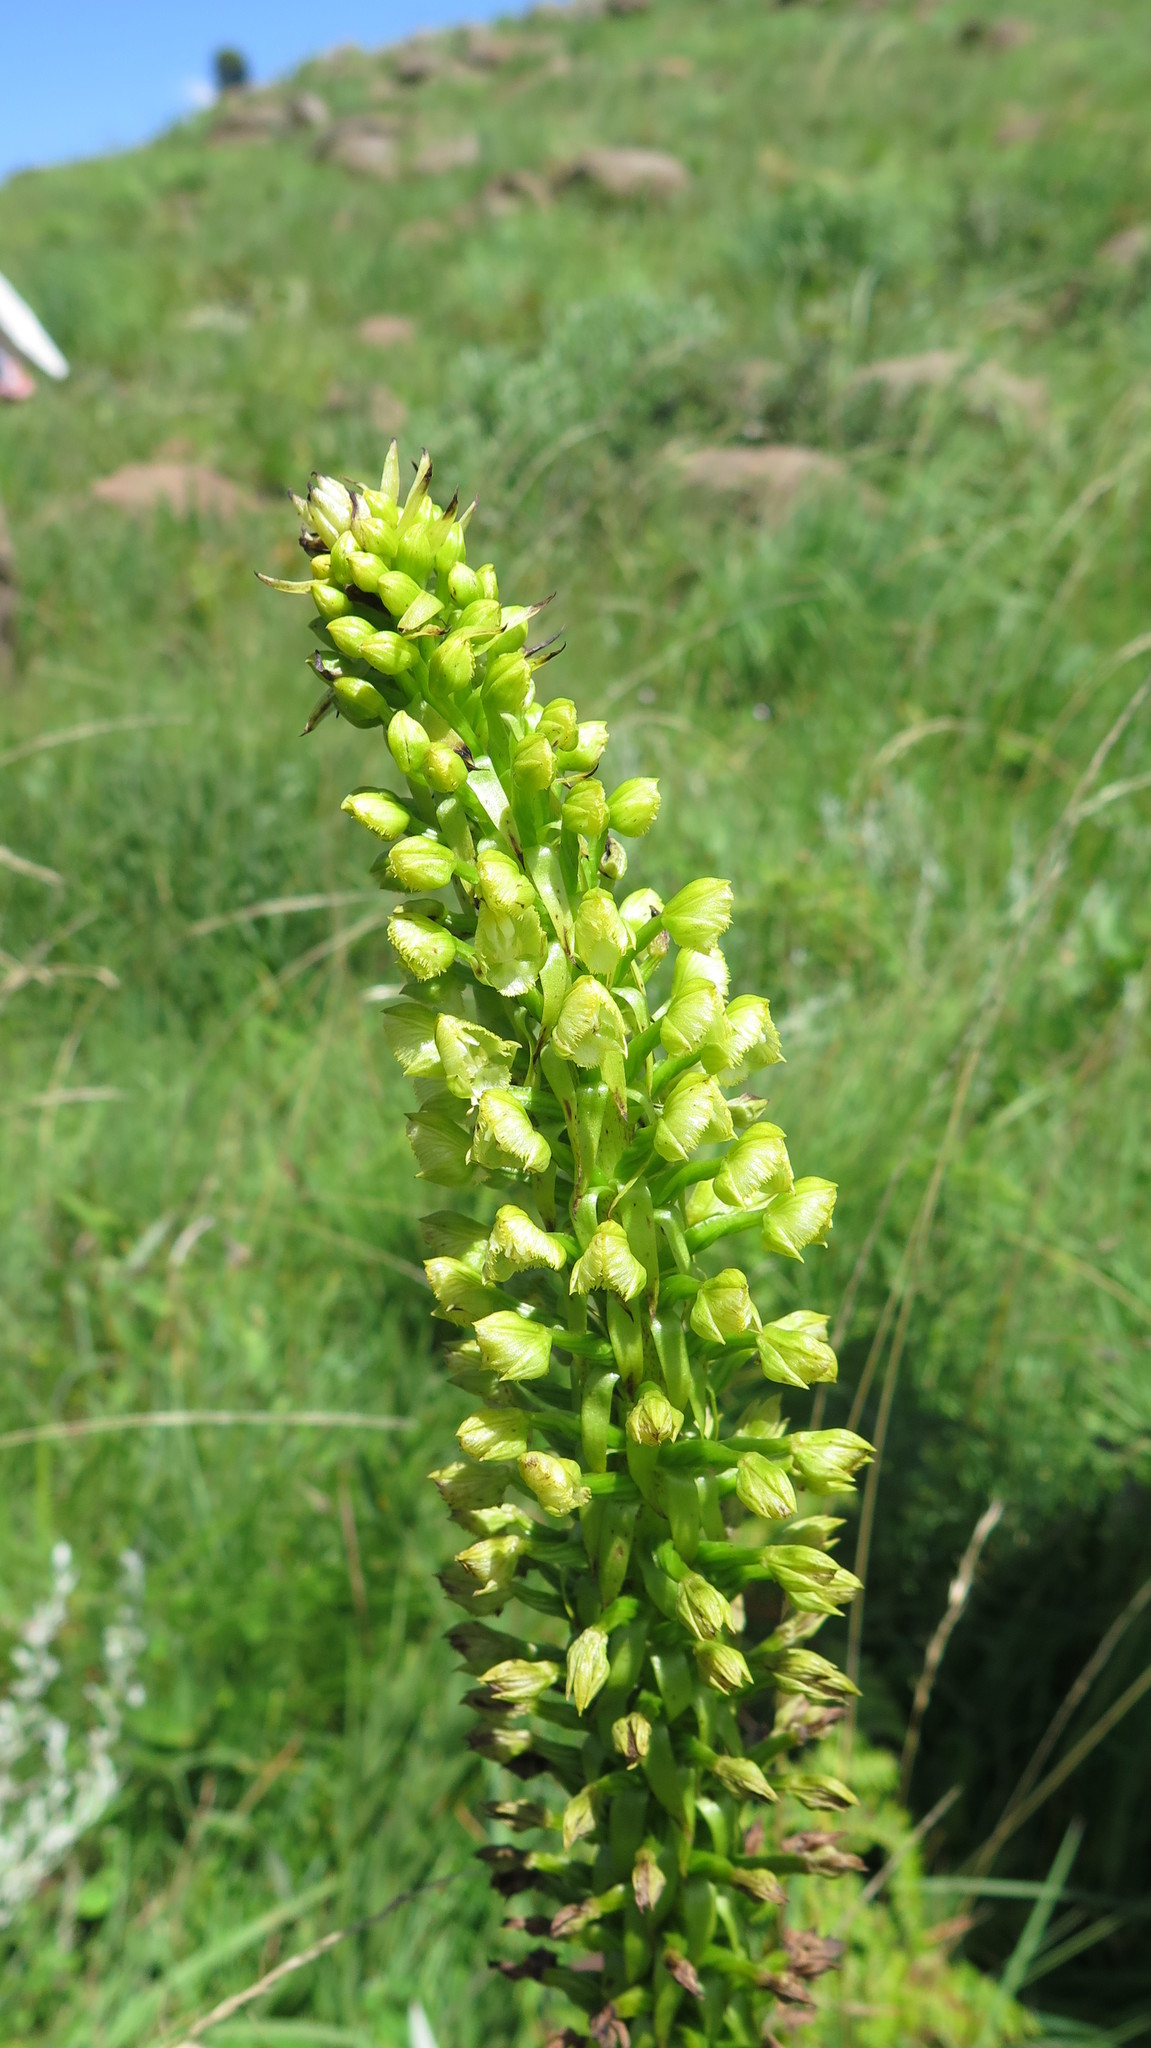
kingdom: Plantae
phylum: Tracheophyta
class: Liliopsida
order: Asparagales
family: Orchidaceae
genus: Pterygodium
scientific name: Pterygodium magnum
